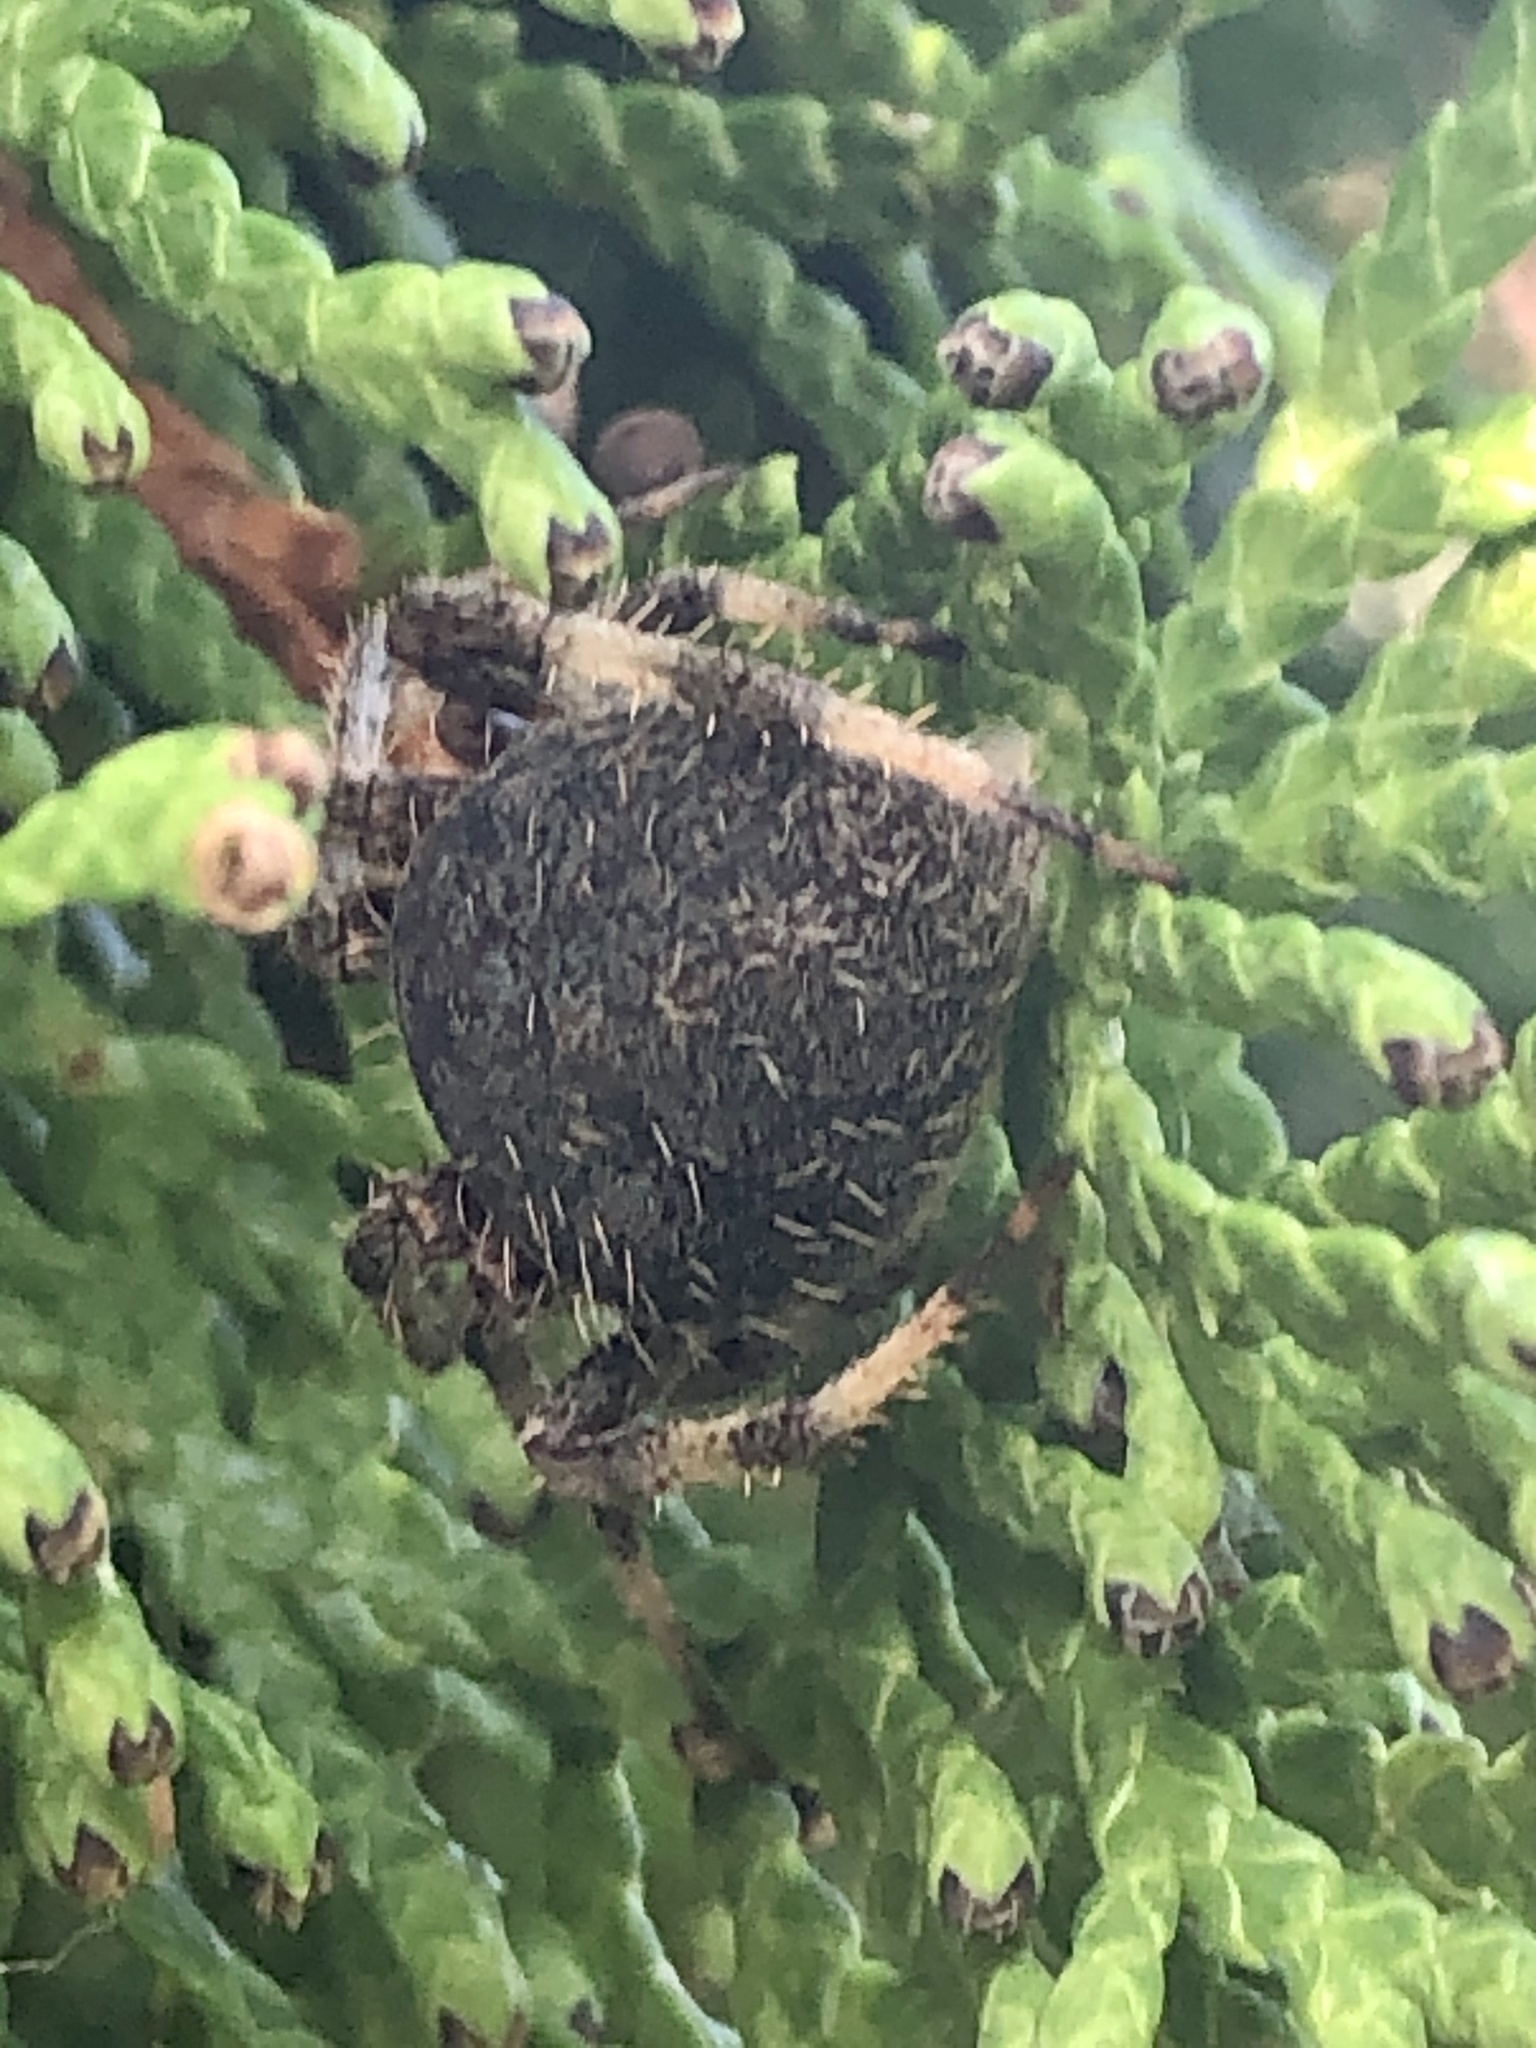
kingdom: Animalia
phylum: Arthropoda
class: Arachnida
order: Araneae
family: Araneidae
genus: Neoscona
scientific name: Neoscona crucifera
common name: Spotted orbweaver
